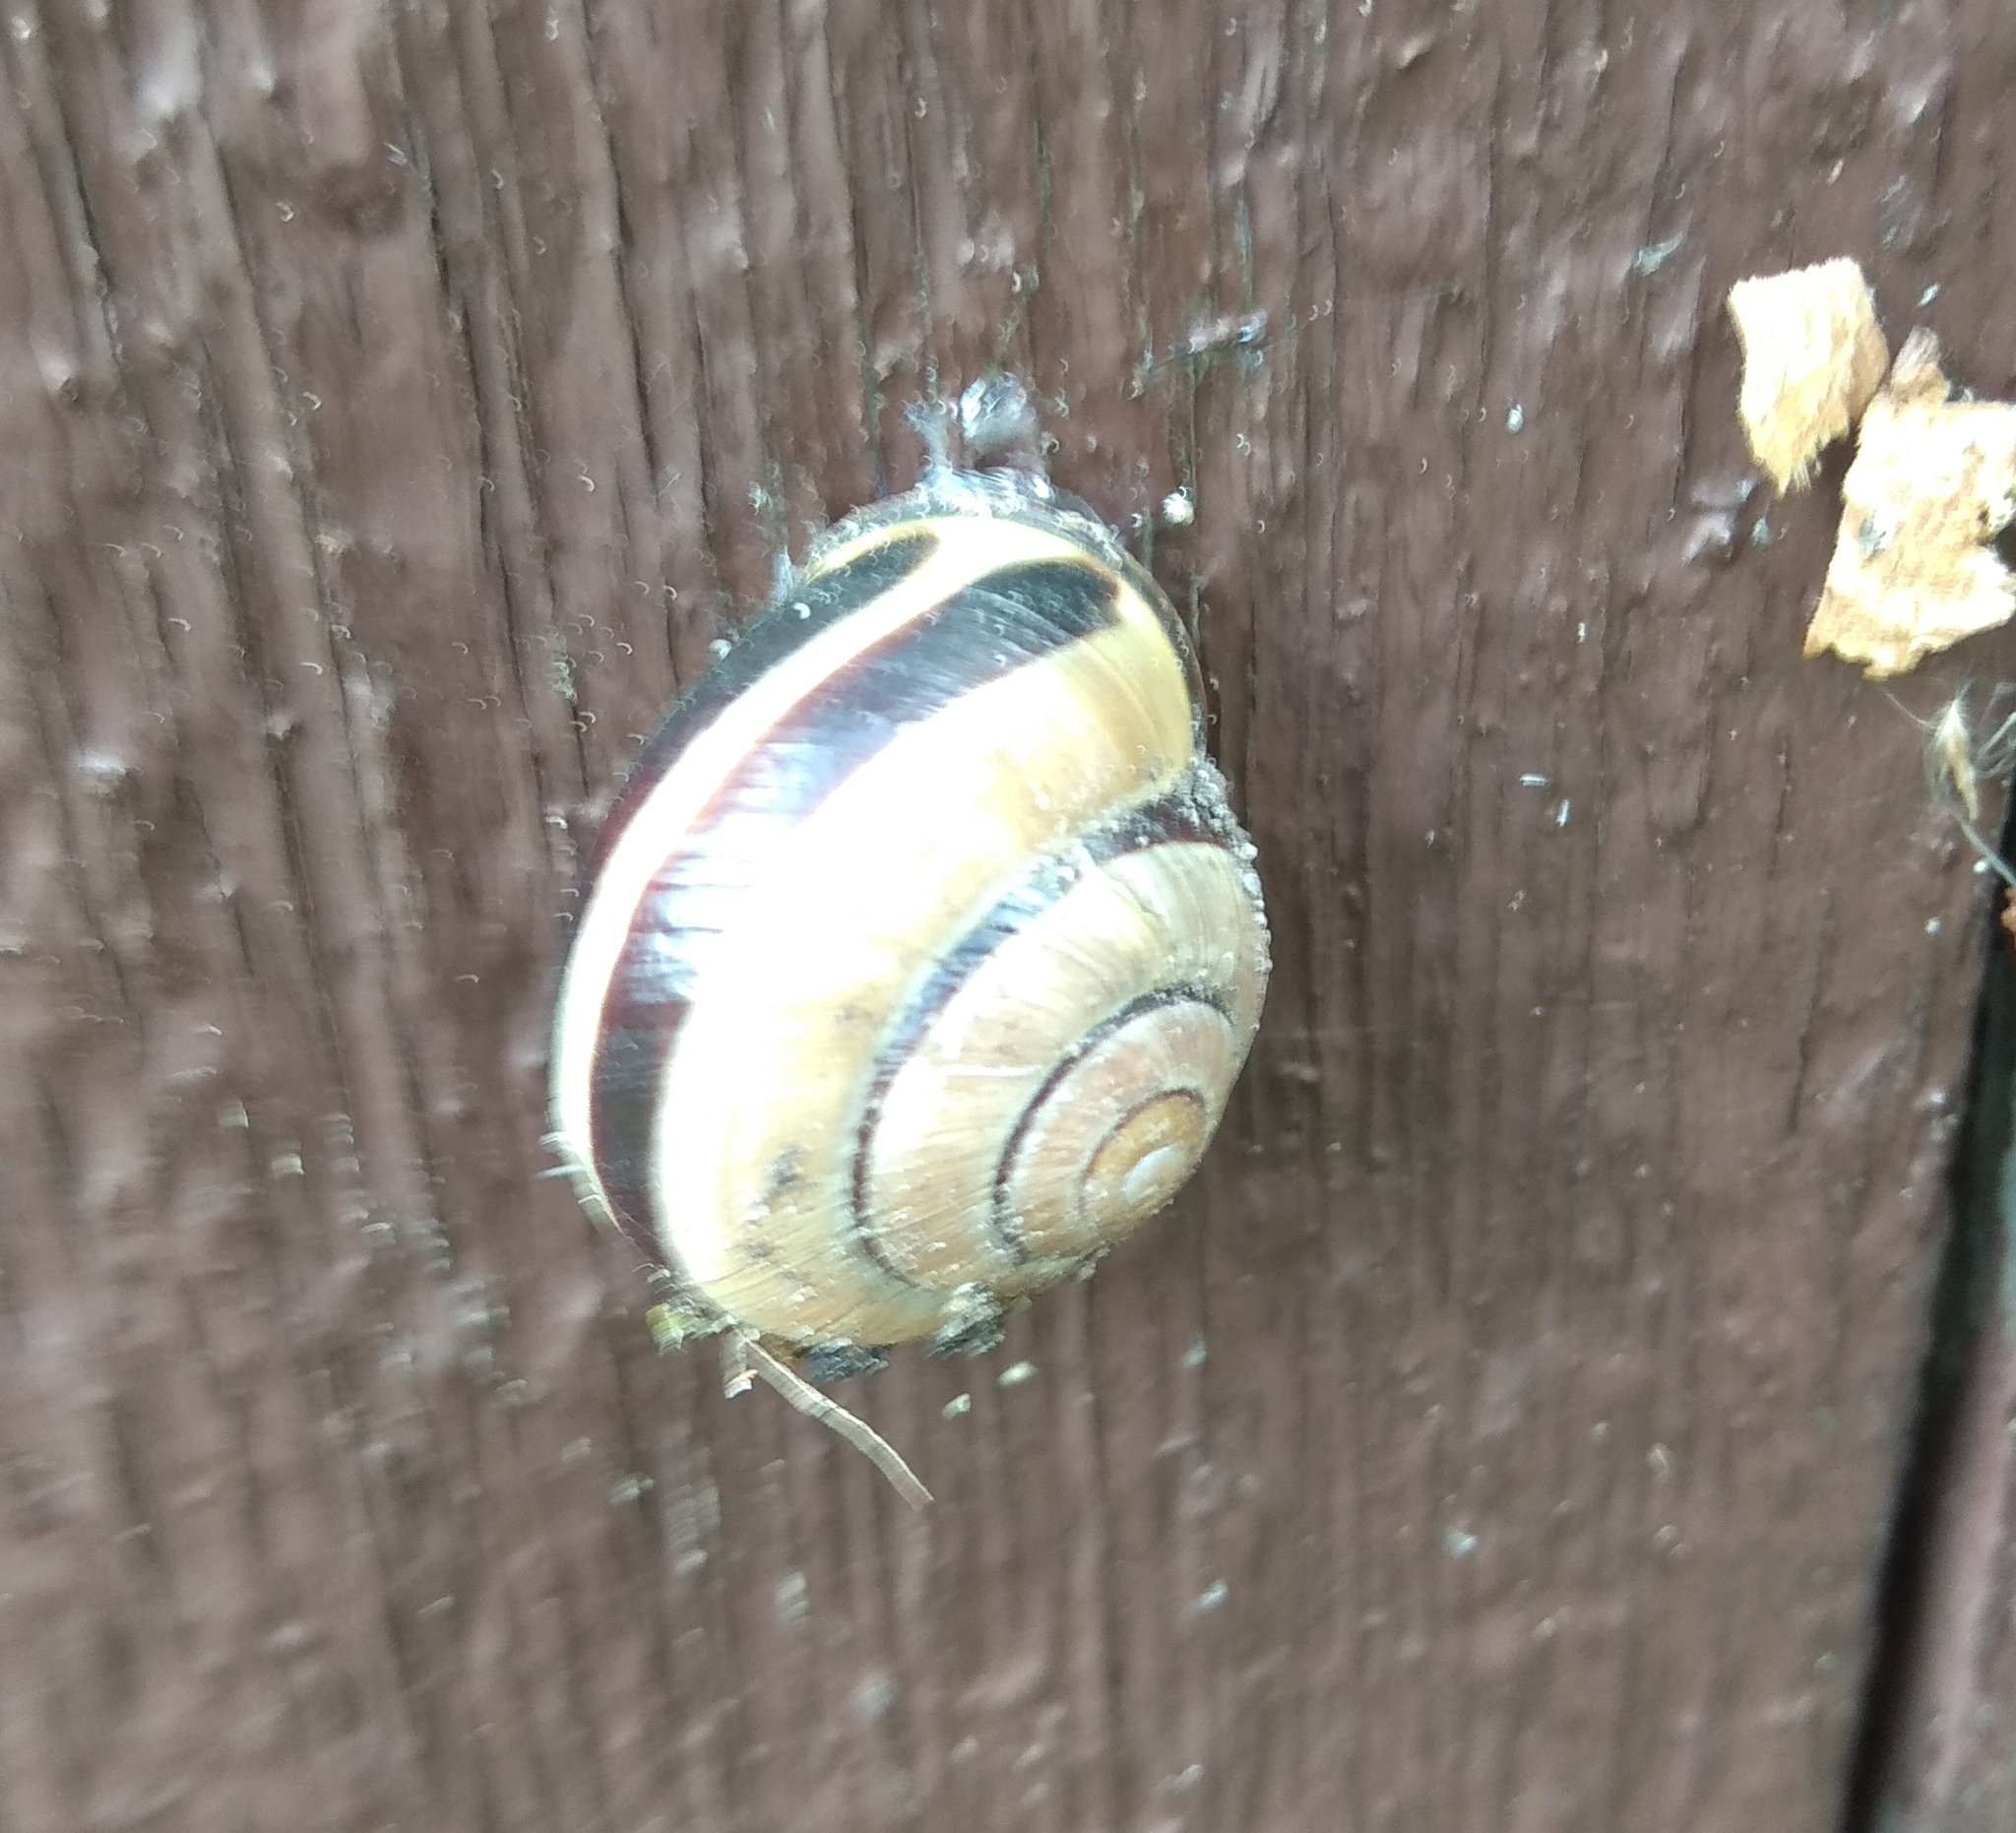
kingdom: Animalia
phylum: Mollusca
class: Gastropoda
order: Stylommatophora
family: Helicidae
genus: Cepaea
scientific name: Cepaea nemoralis
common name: Grovesnail
